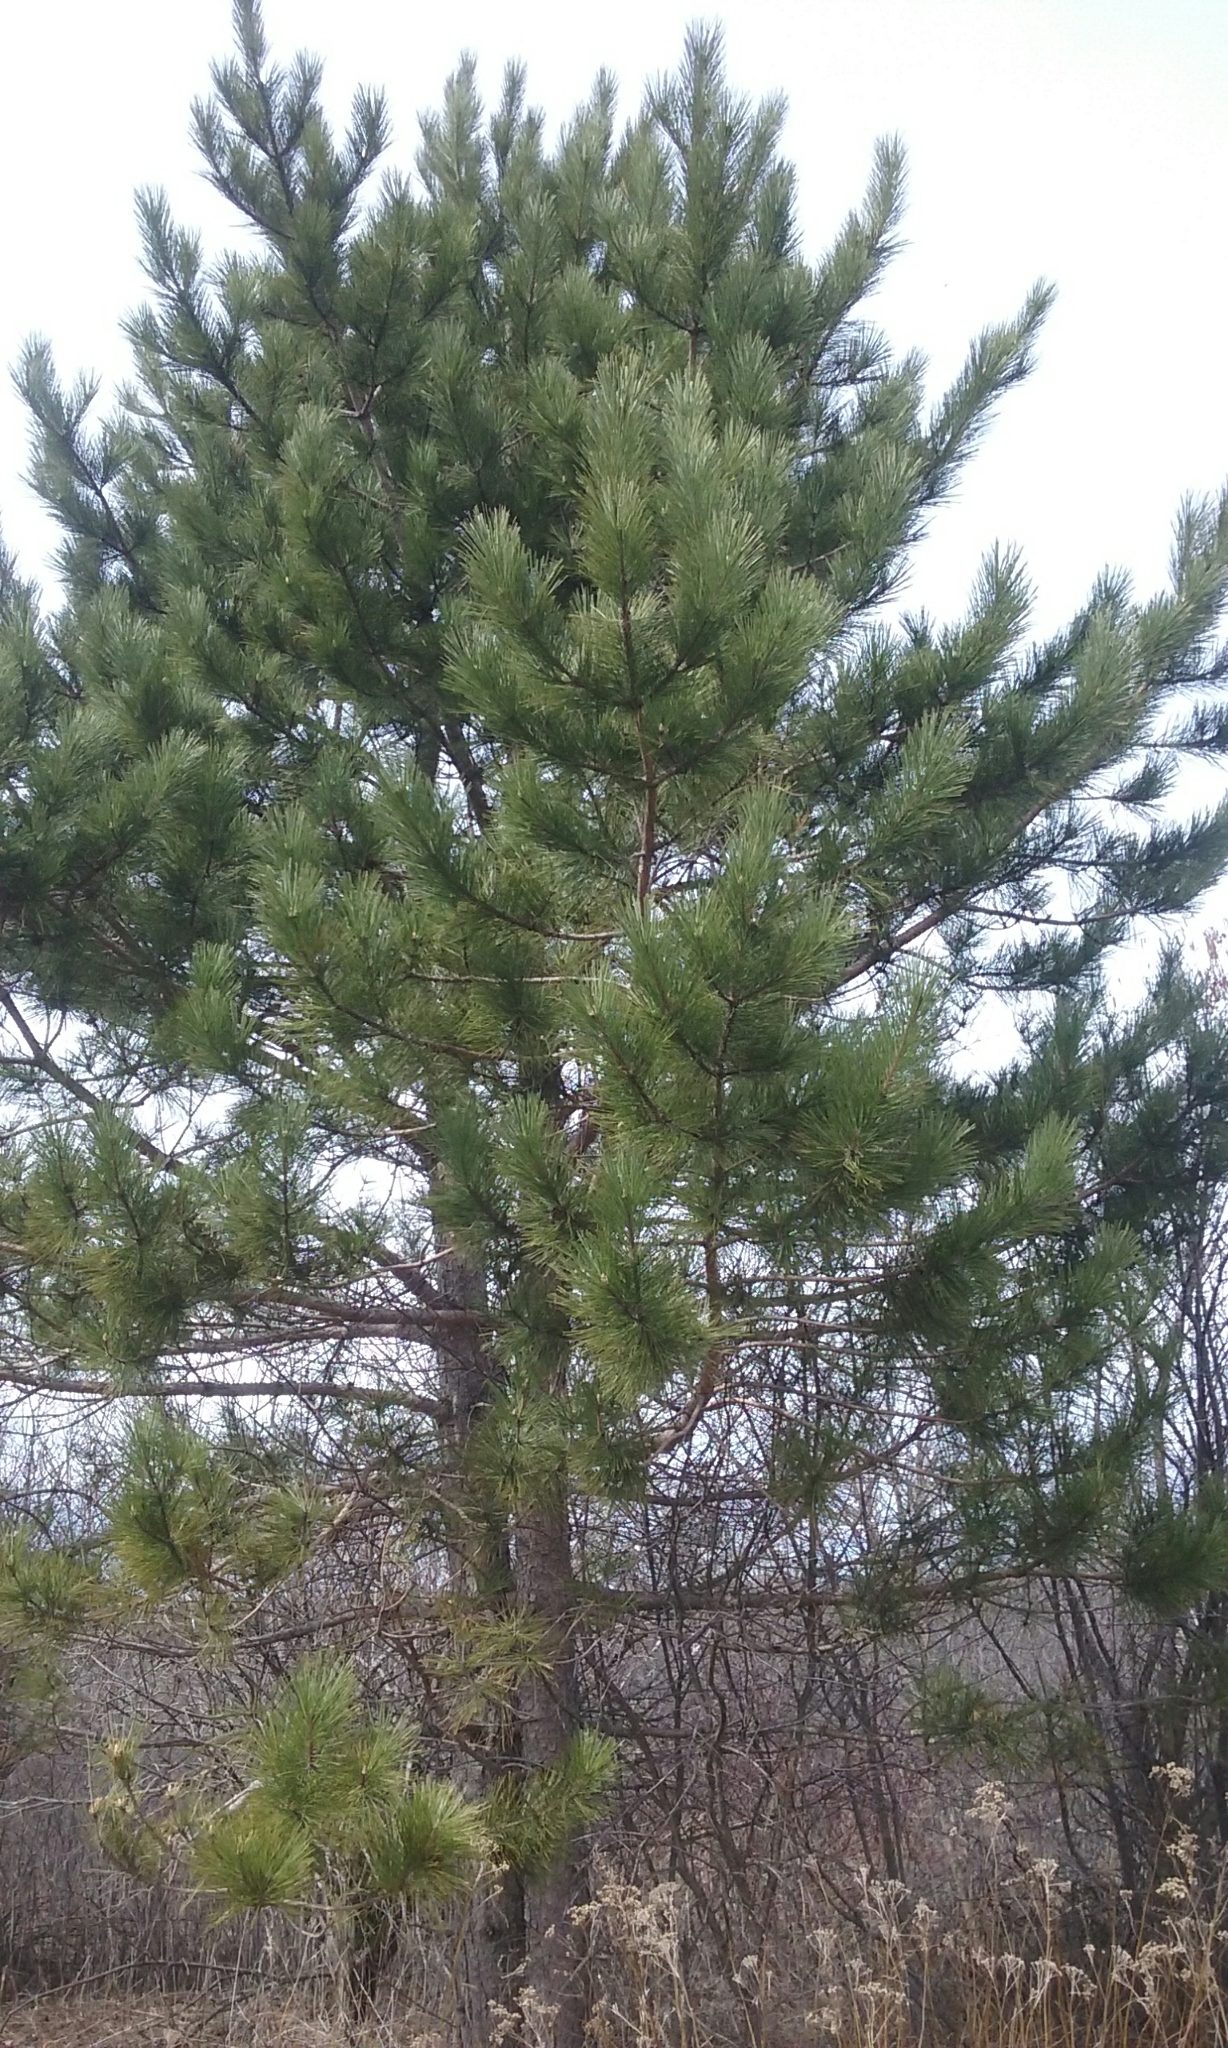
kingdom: Plantae
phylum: Tracheophyta
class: Pinopsida
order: Pinales
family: Pinaceae
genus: Pinus
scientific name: Pinus resinosa
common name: Norway pine
